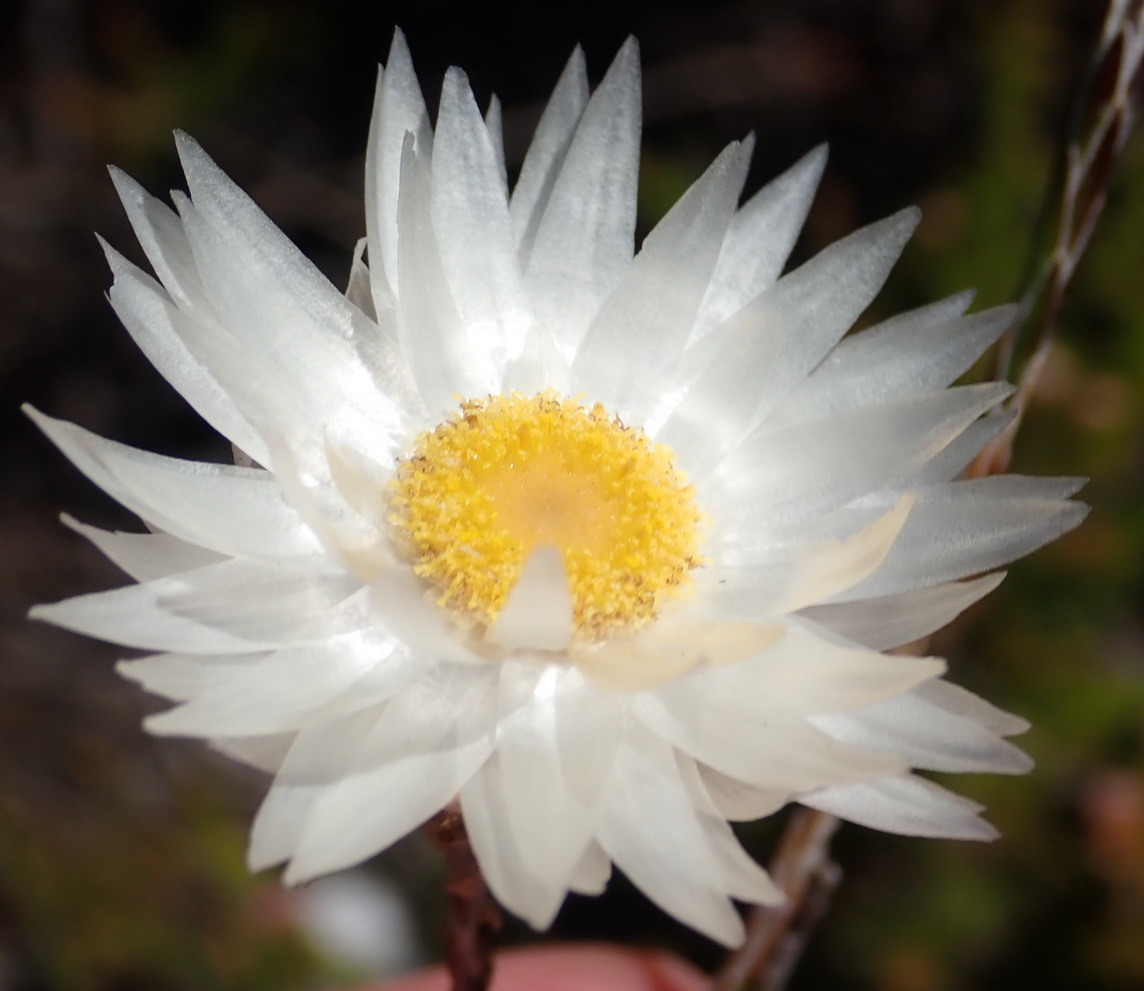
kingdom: Plantae
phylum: Tracheophyta
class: Magnoliopsida
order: Asterales
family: Asteraceae
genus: Edmondia
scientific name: Edmondia sesamoides
